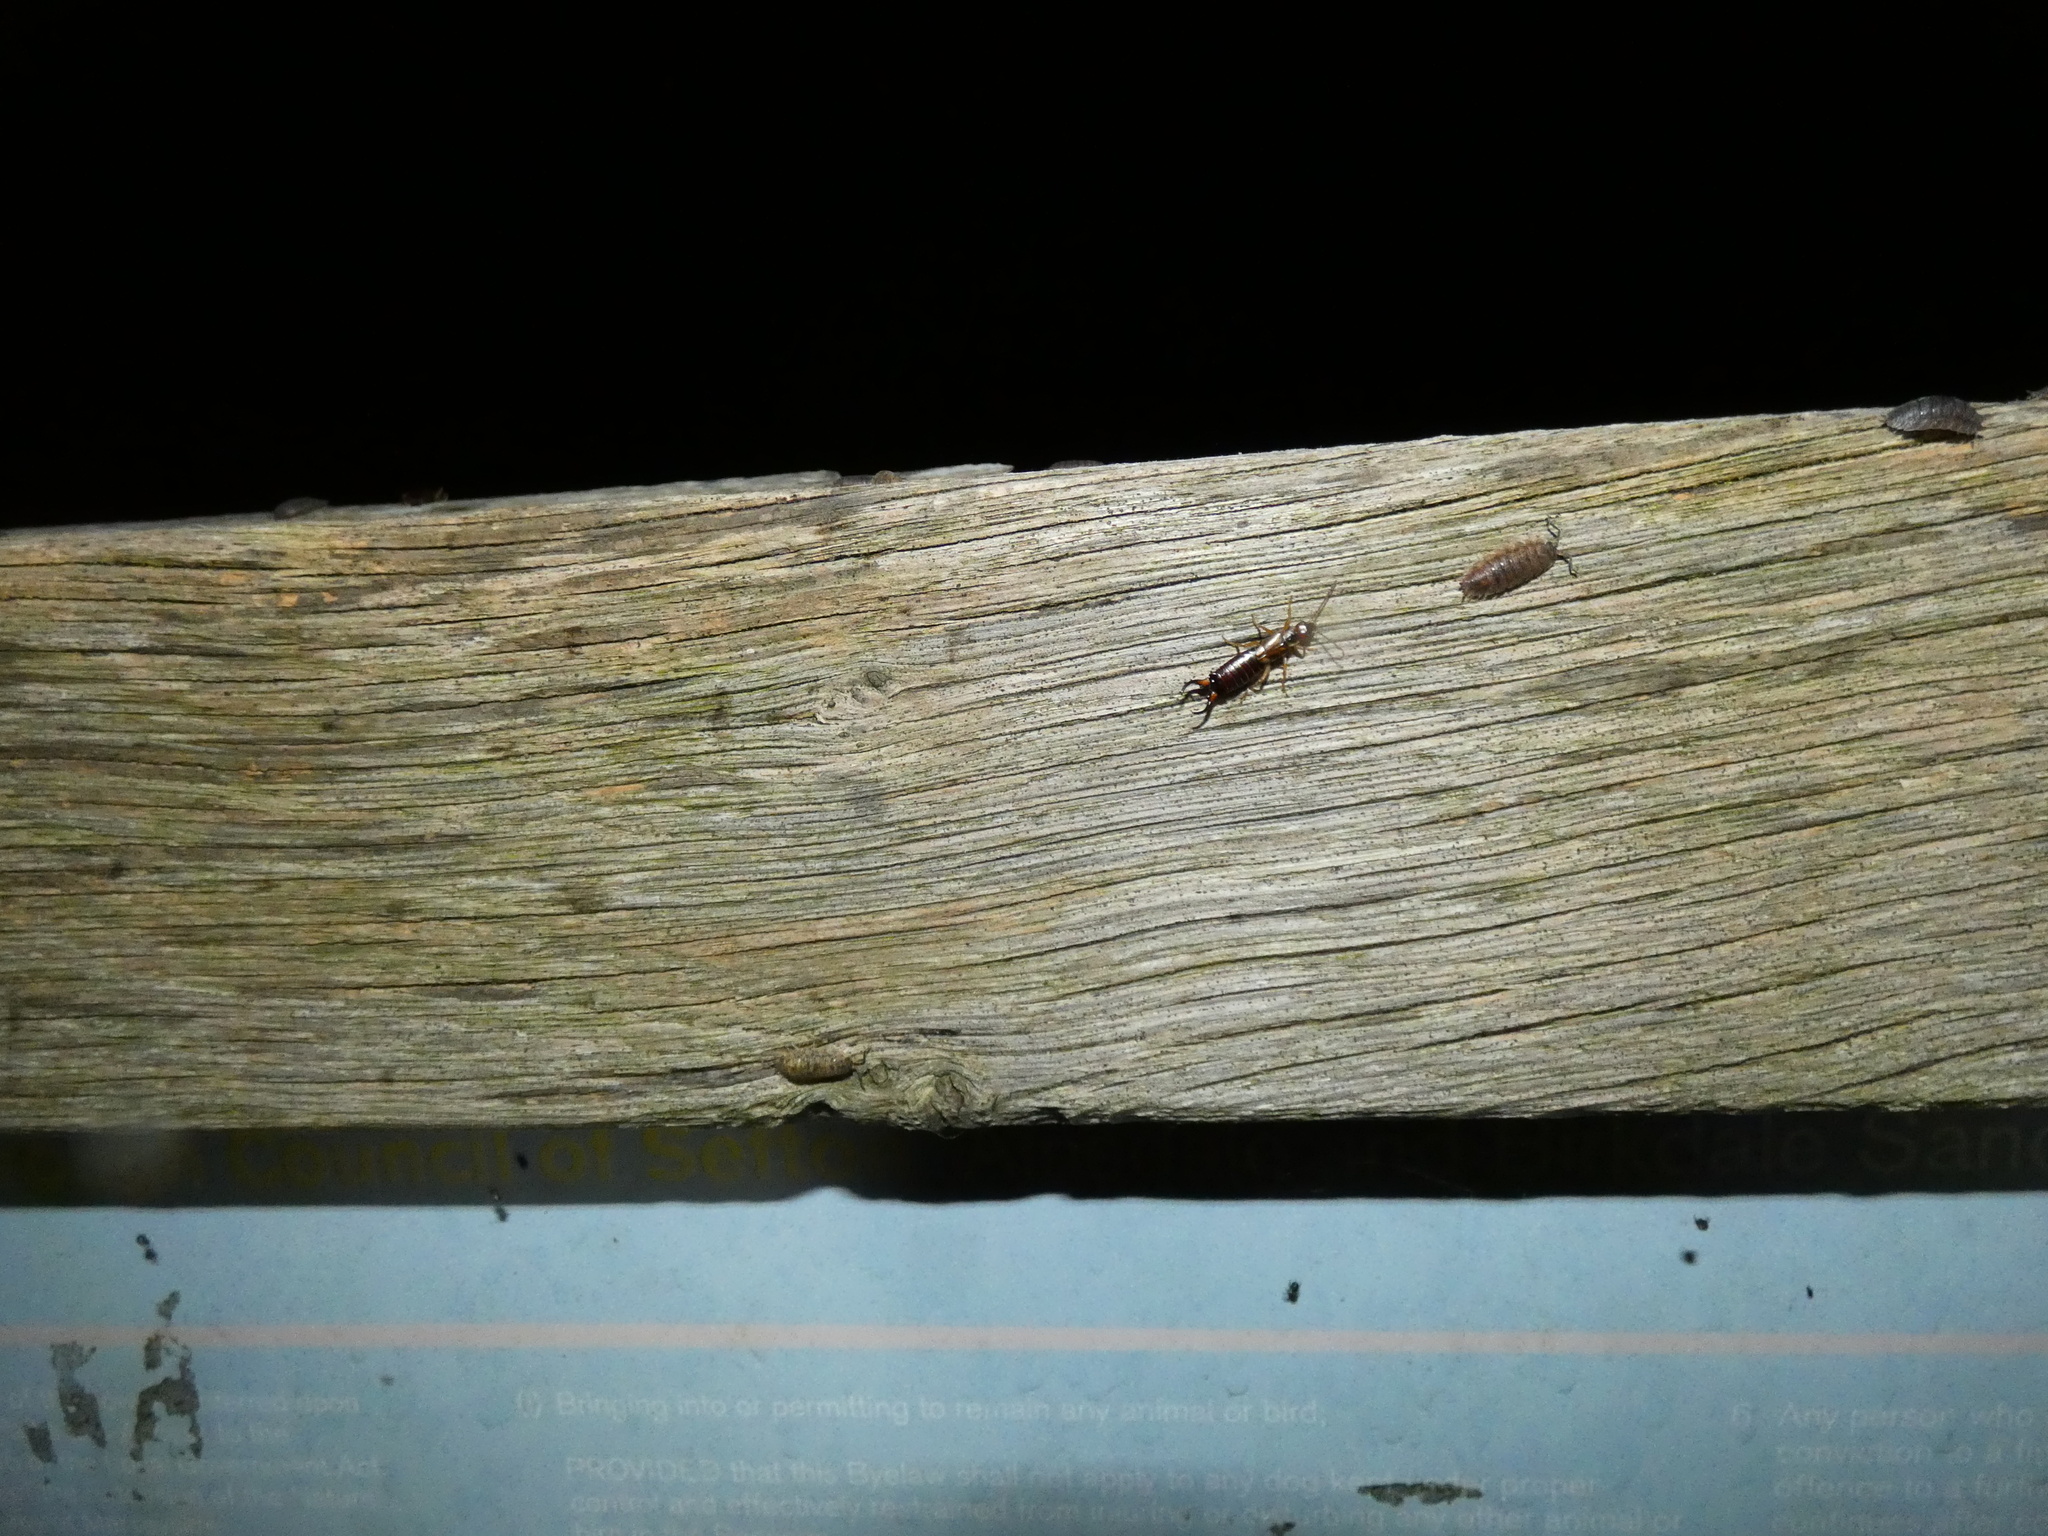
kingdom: Animalia
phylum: Arthropoda
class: Insecta
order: Dermaptera
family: Forficulidae
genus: Forficula
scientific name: Forficula
